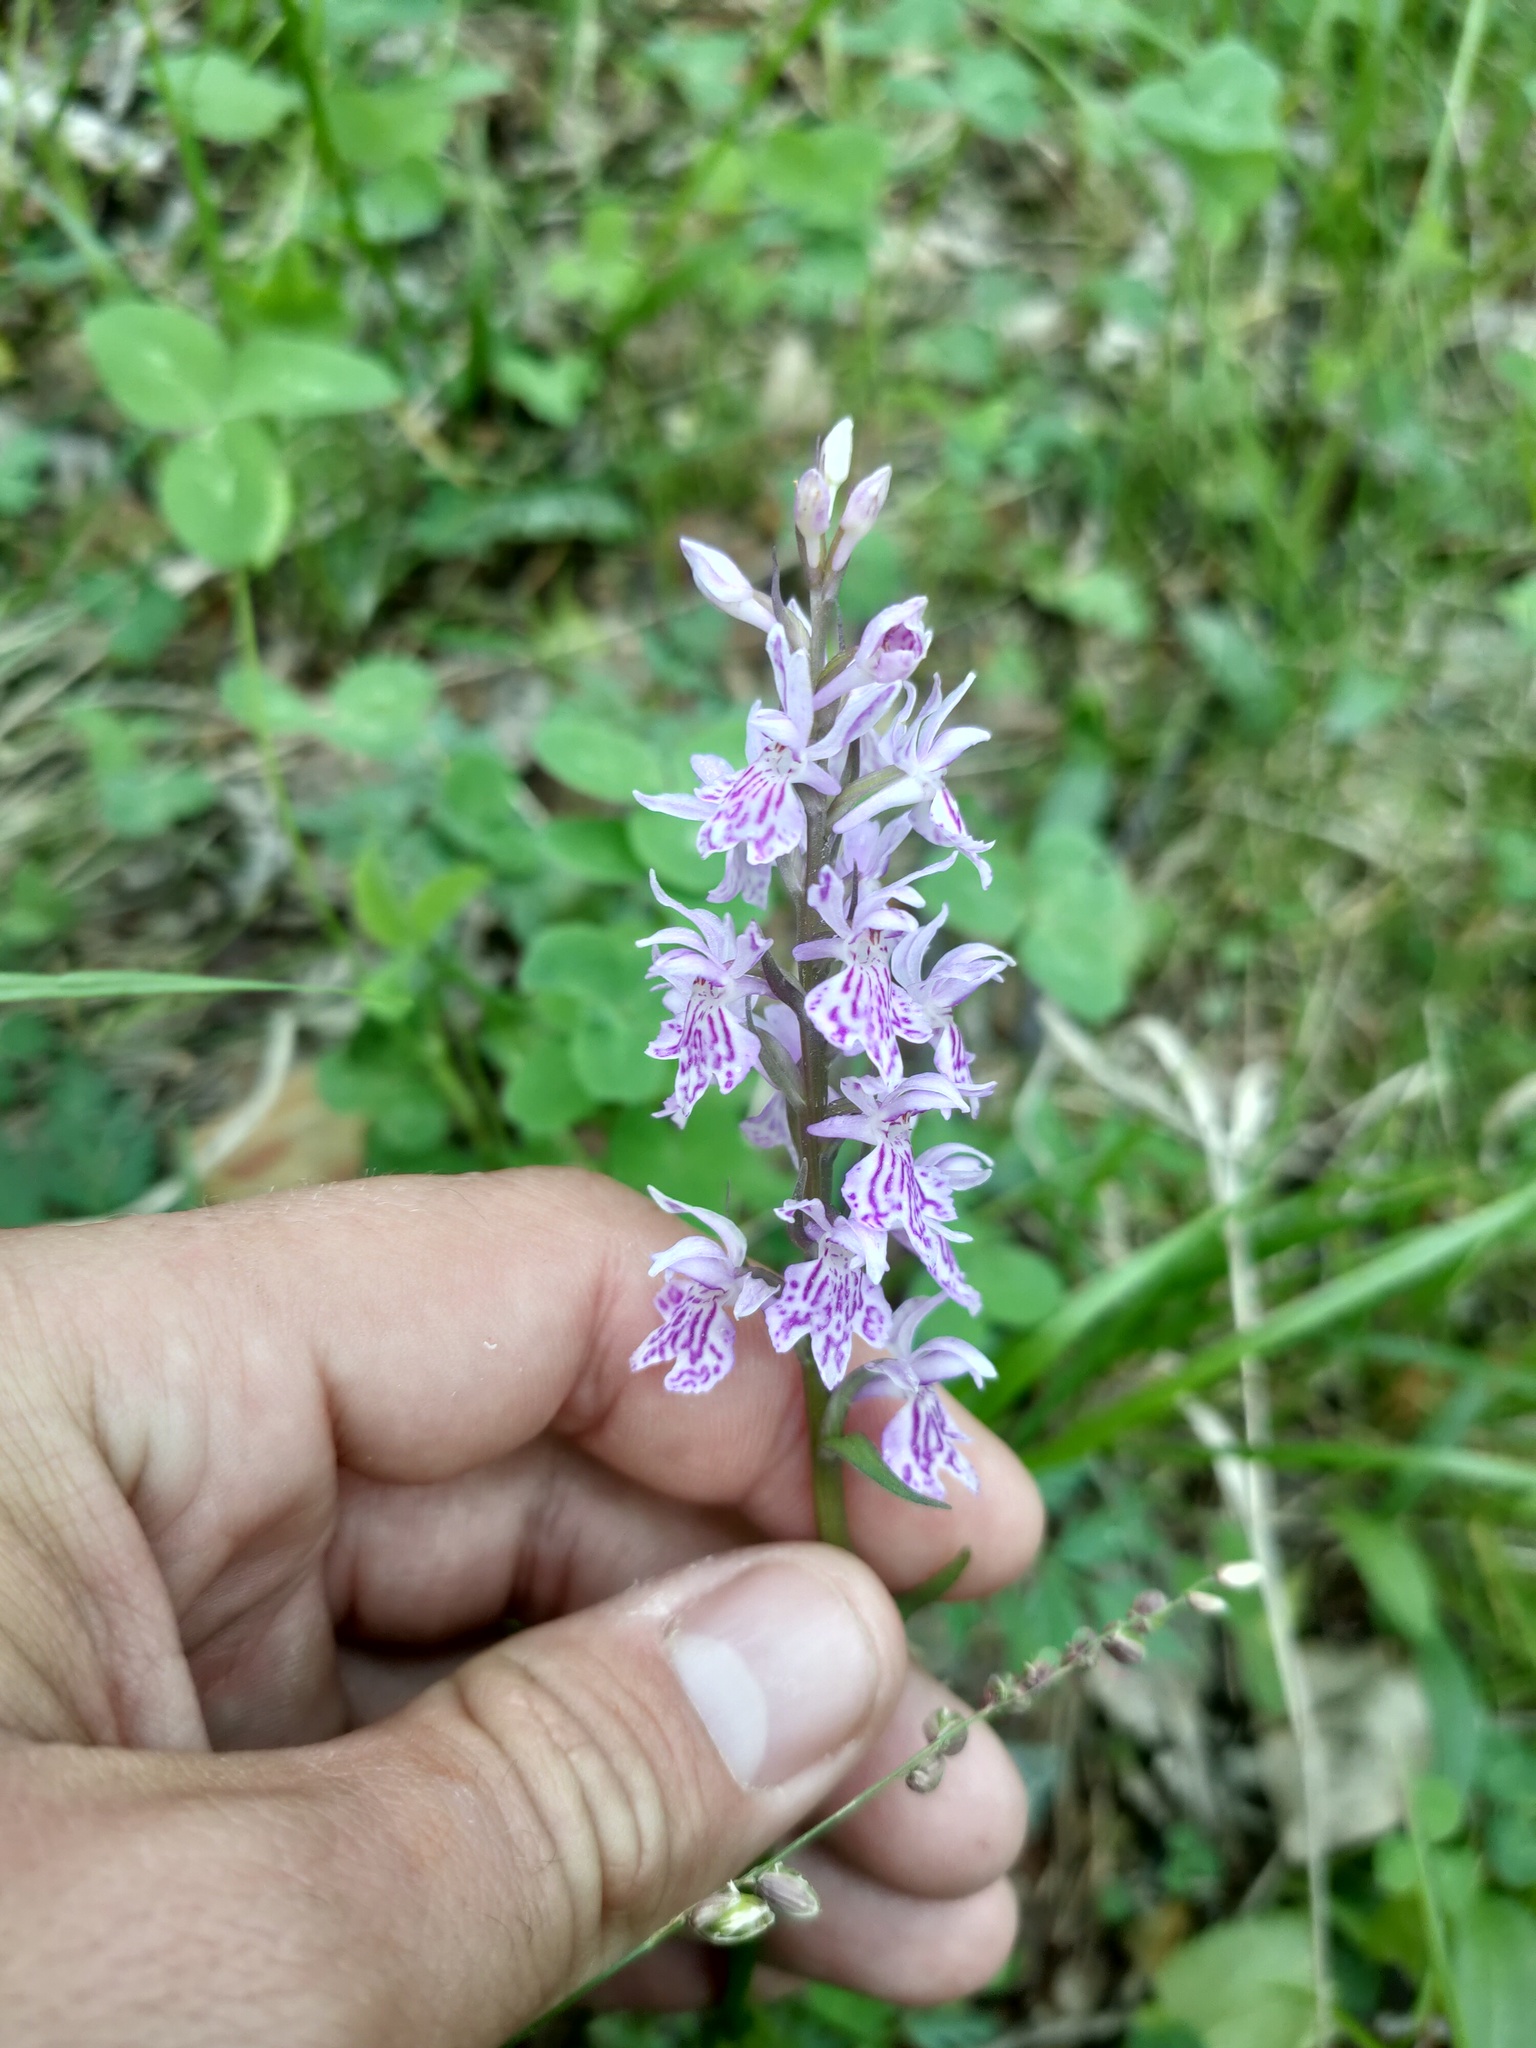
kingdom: Plantae
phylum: Tracheophyta
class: Liliopsida
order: Asparagales
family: Orchidaceae
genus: Dactylorhiza
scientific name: Dactylorhiza maculata
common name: Heath spotted-orchid
